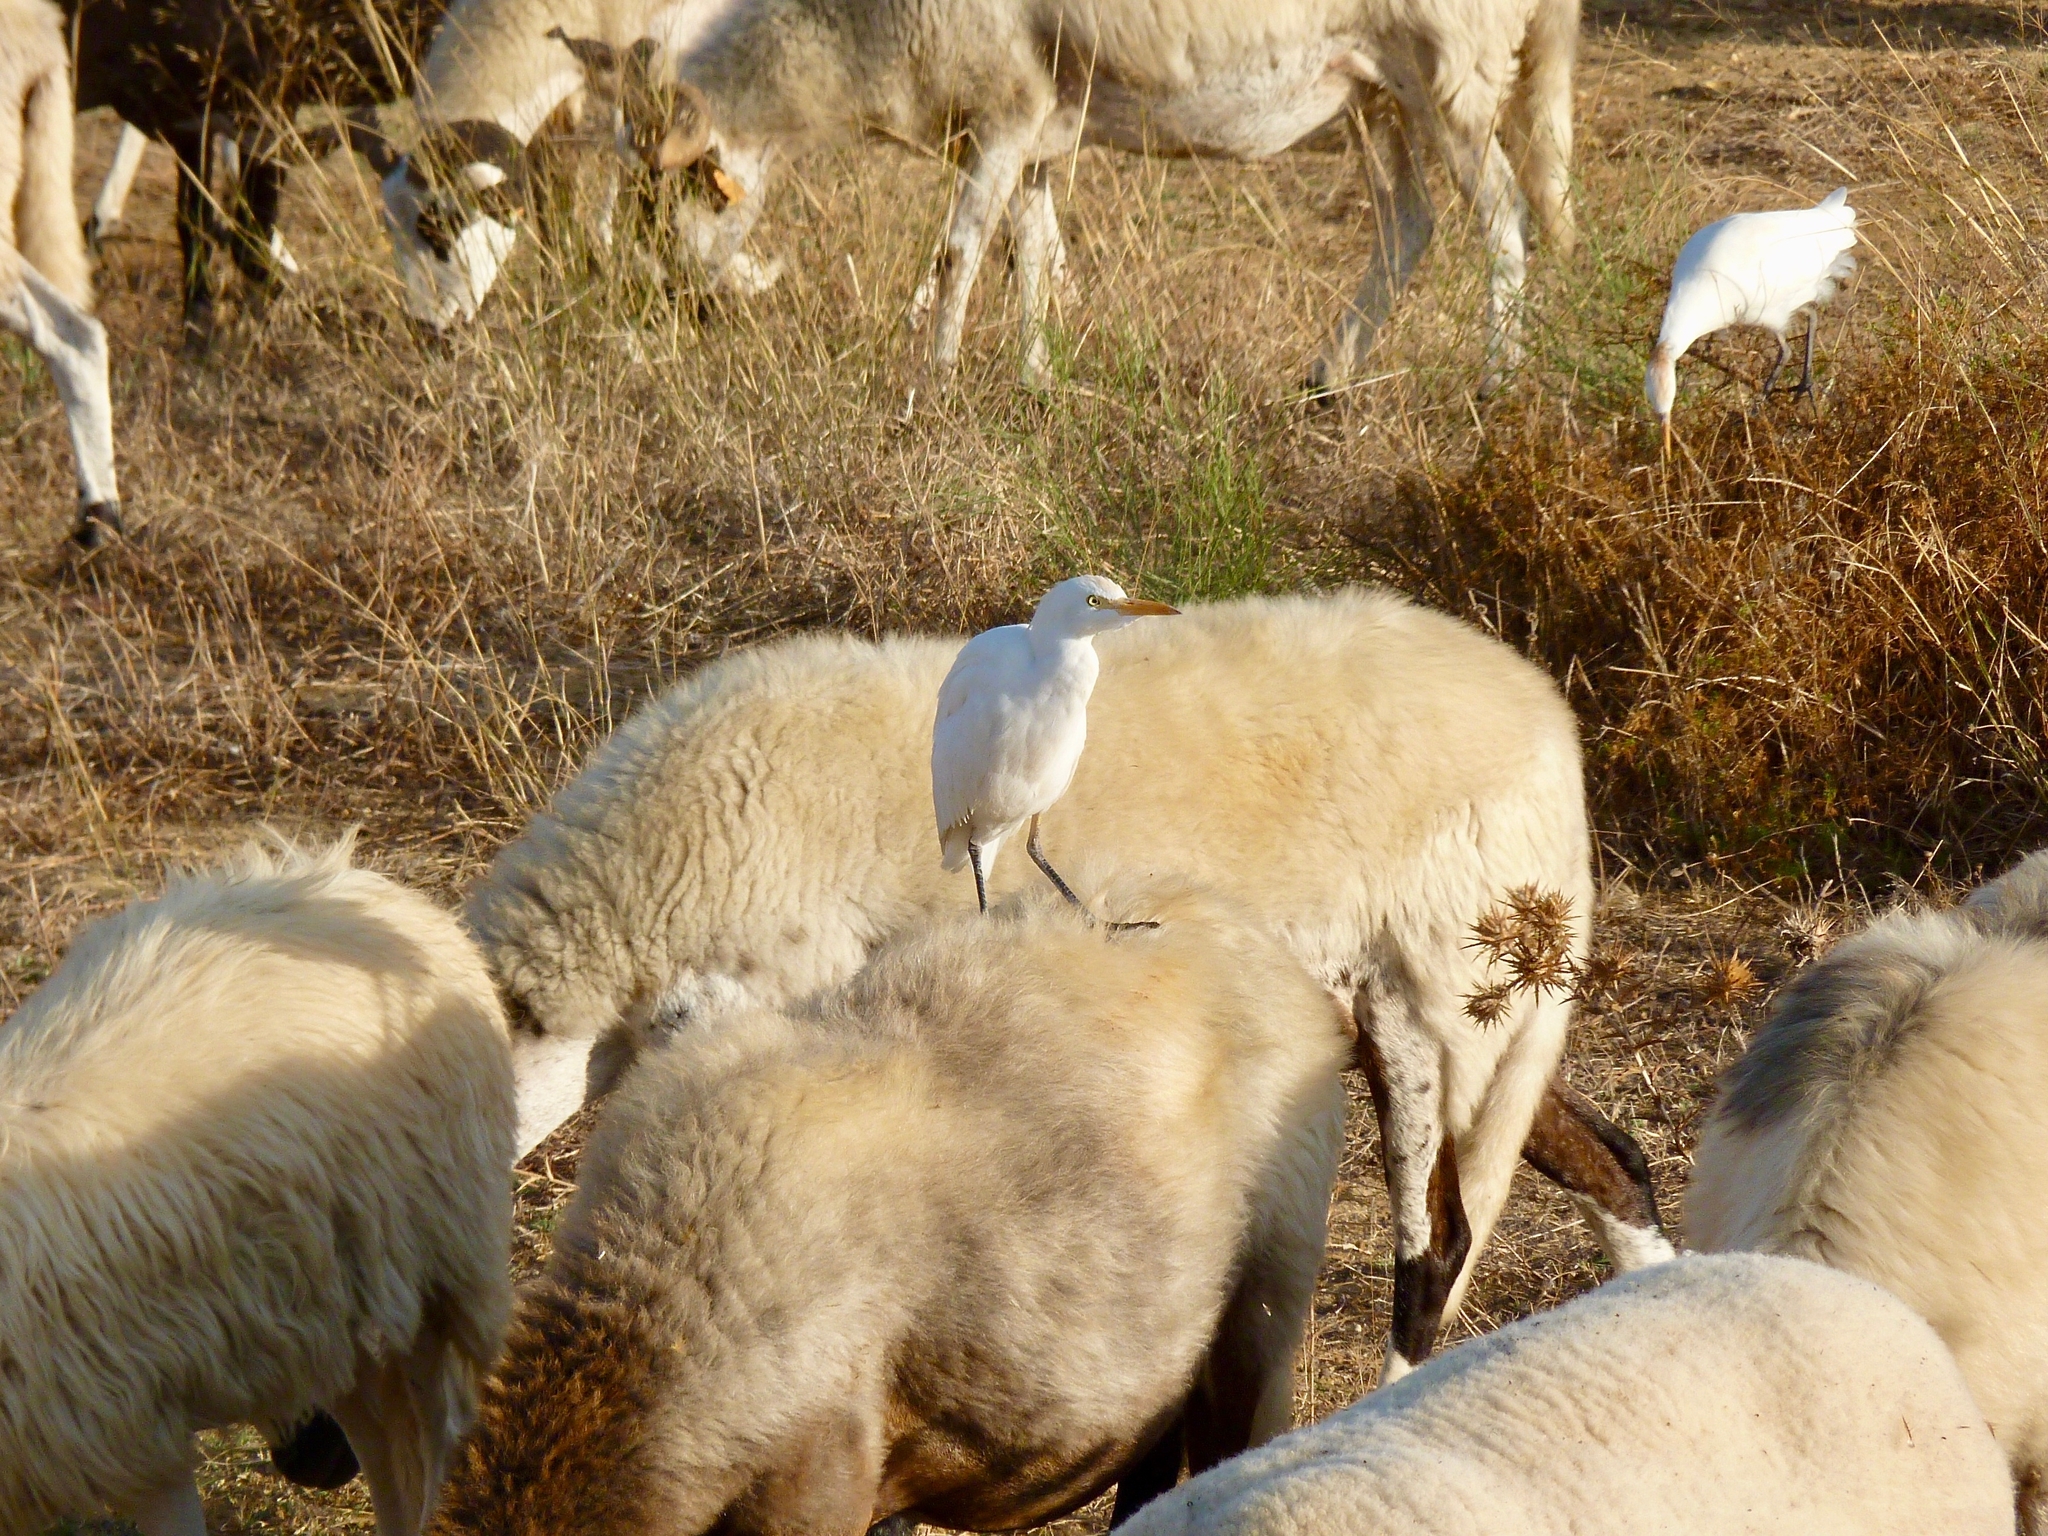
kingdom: Animalia
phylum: Chordata
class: Aves
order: Pelecaniformes
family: Ardeidae
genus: Bubulcus
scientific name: Bubulcus ibis
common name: Cattle egret
